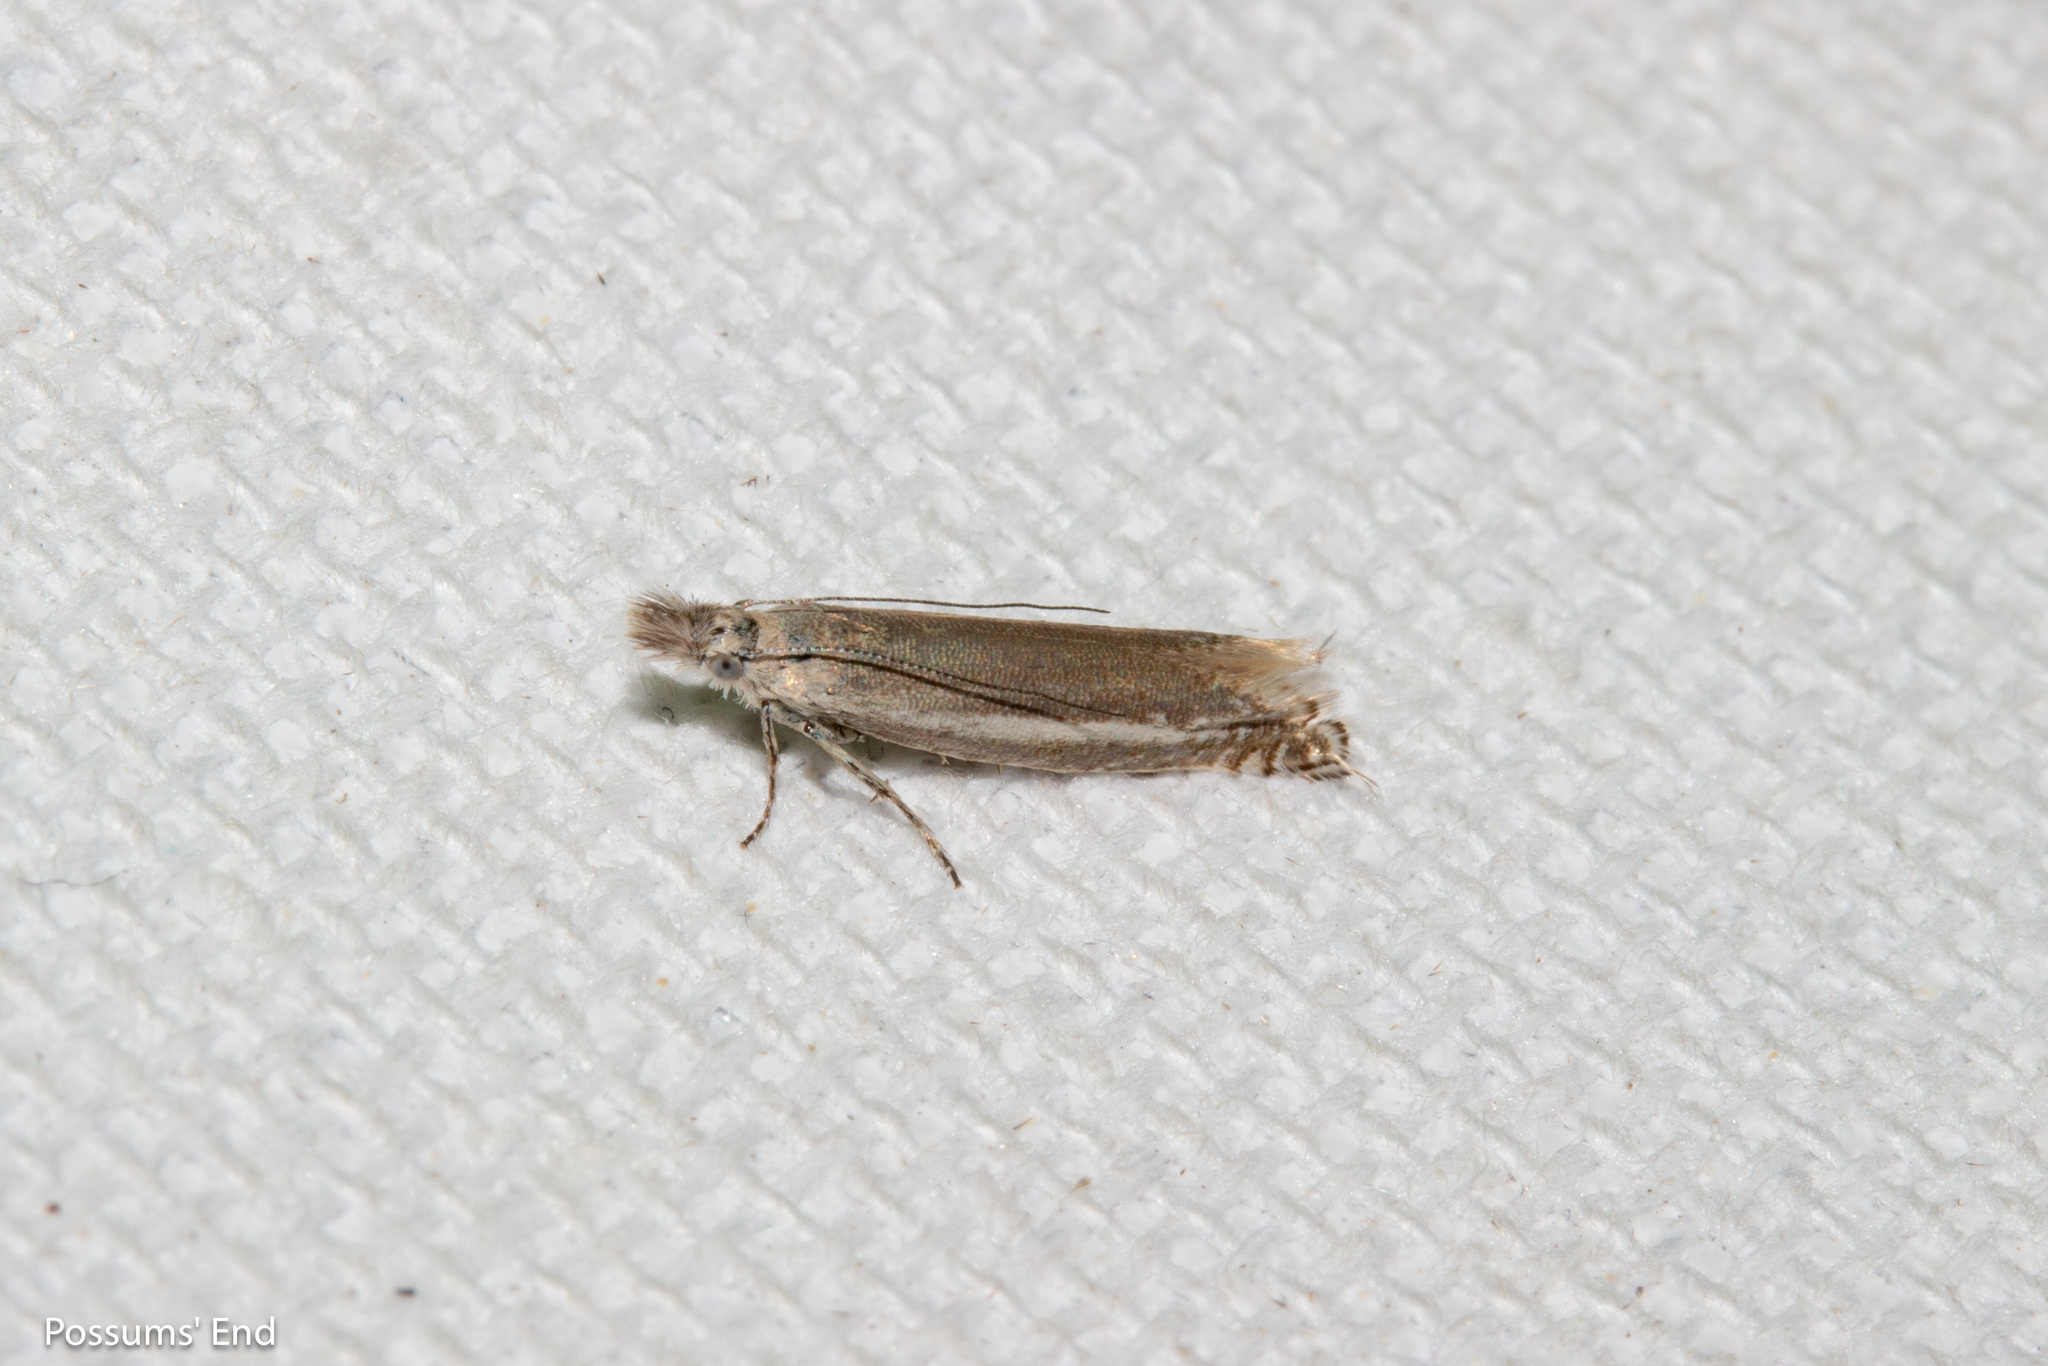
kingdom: Animalia
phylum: Arthropoda
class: Insecta
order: Lepidoptera
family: Glyphipterigidae
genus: Glyphipterix
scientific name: Glyphipterix barbata
